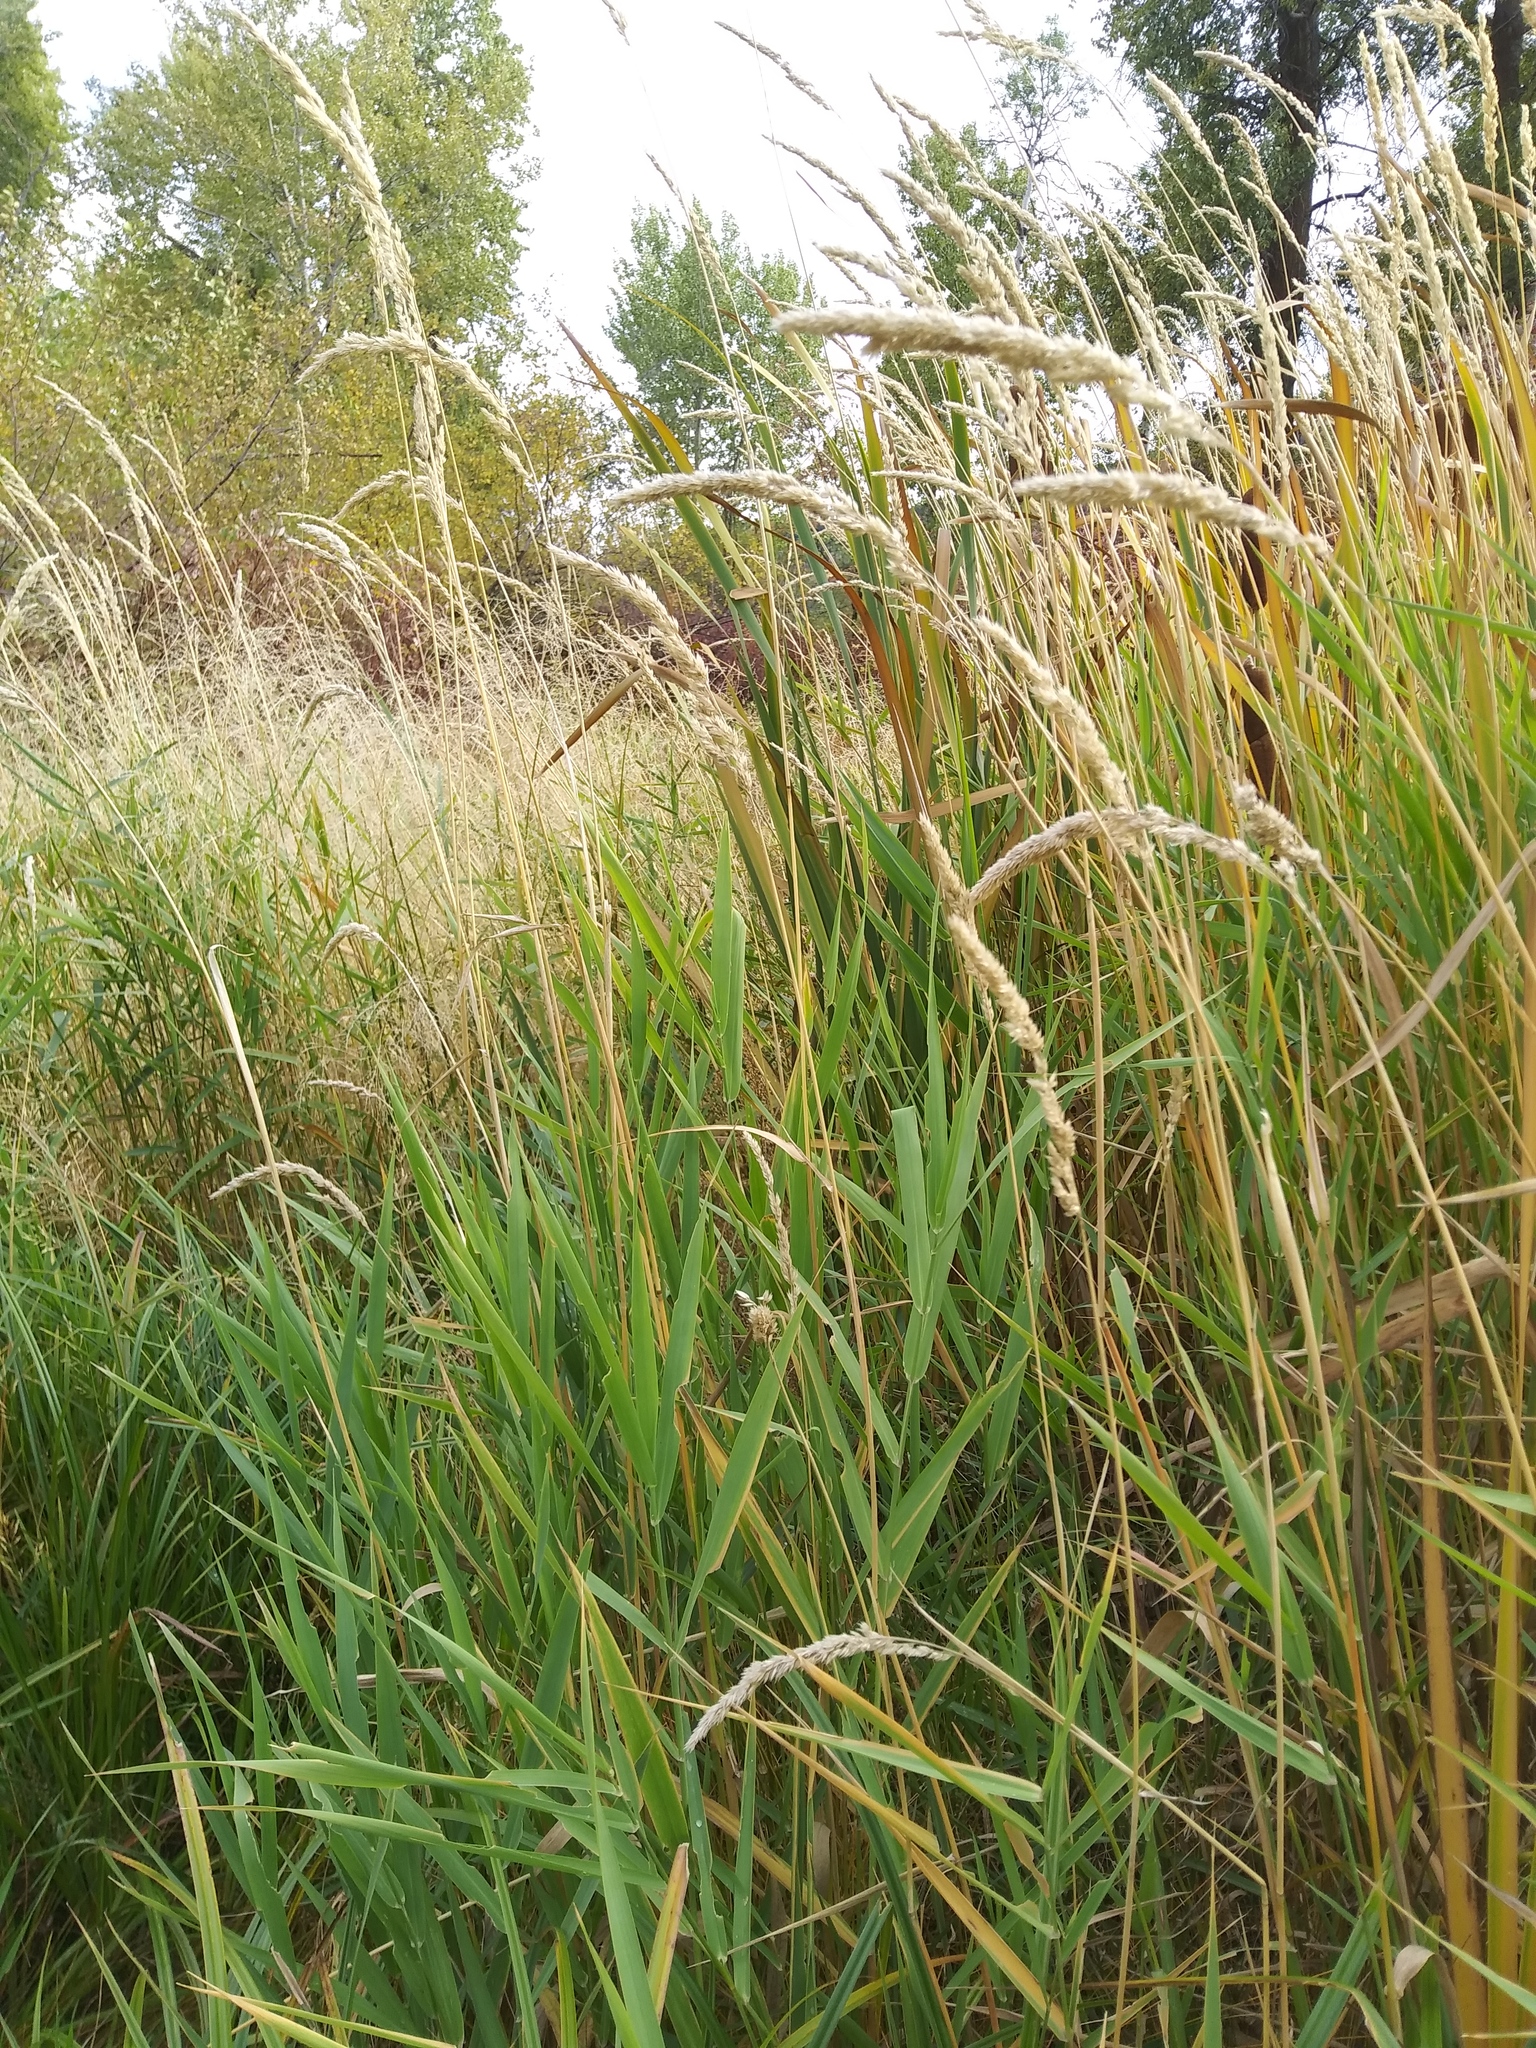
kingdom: Plantae
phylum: Tracheophyta
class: Liliopsida
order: Poales
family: Poaceae
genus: Phalaris
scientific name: Phalaris arundinacea
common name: Reed canary-grass
